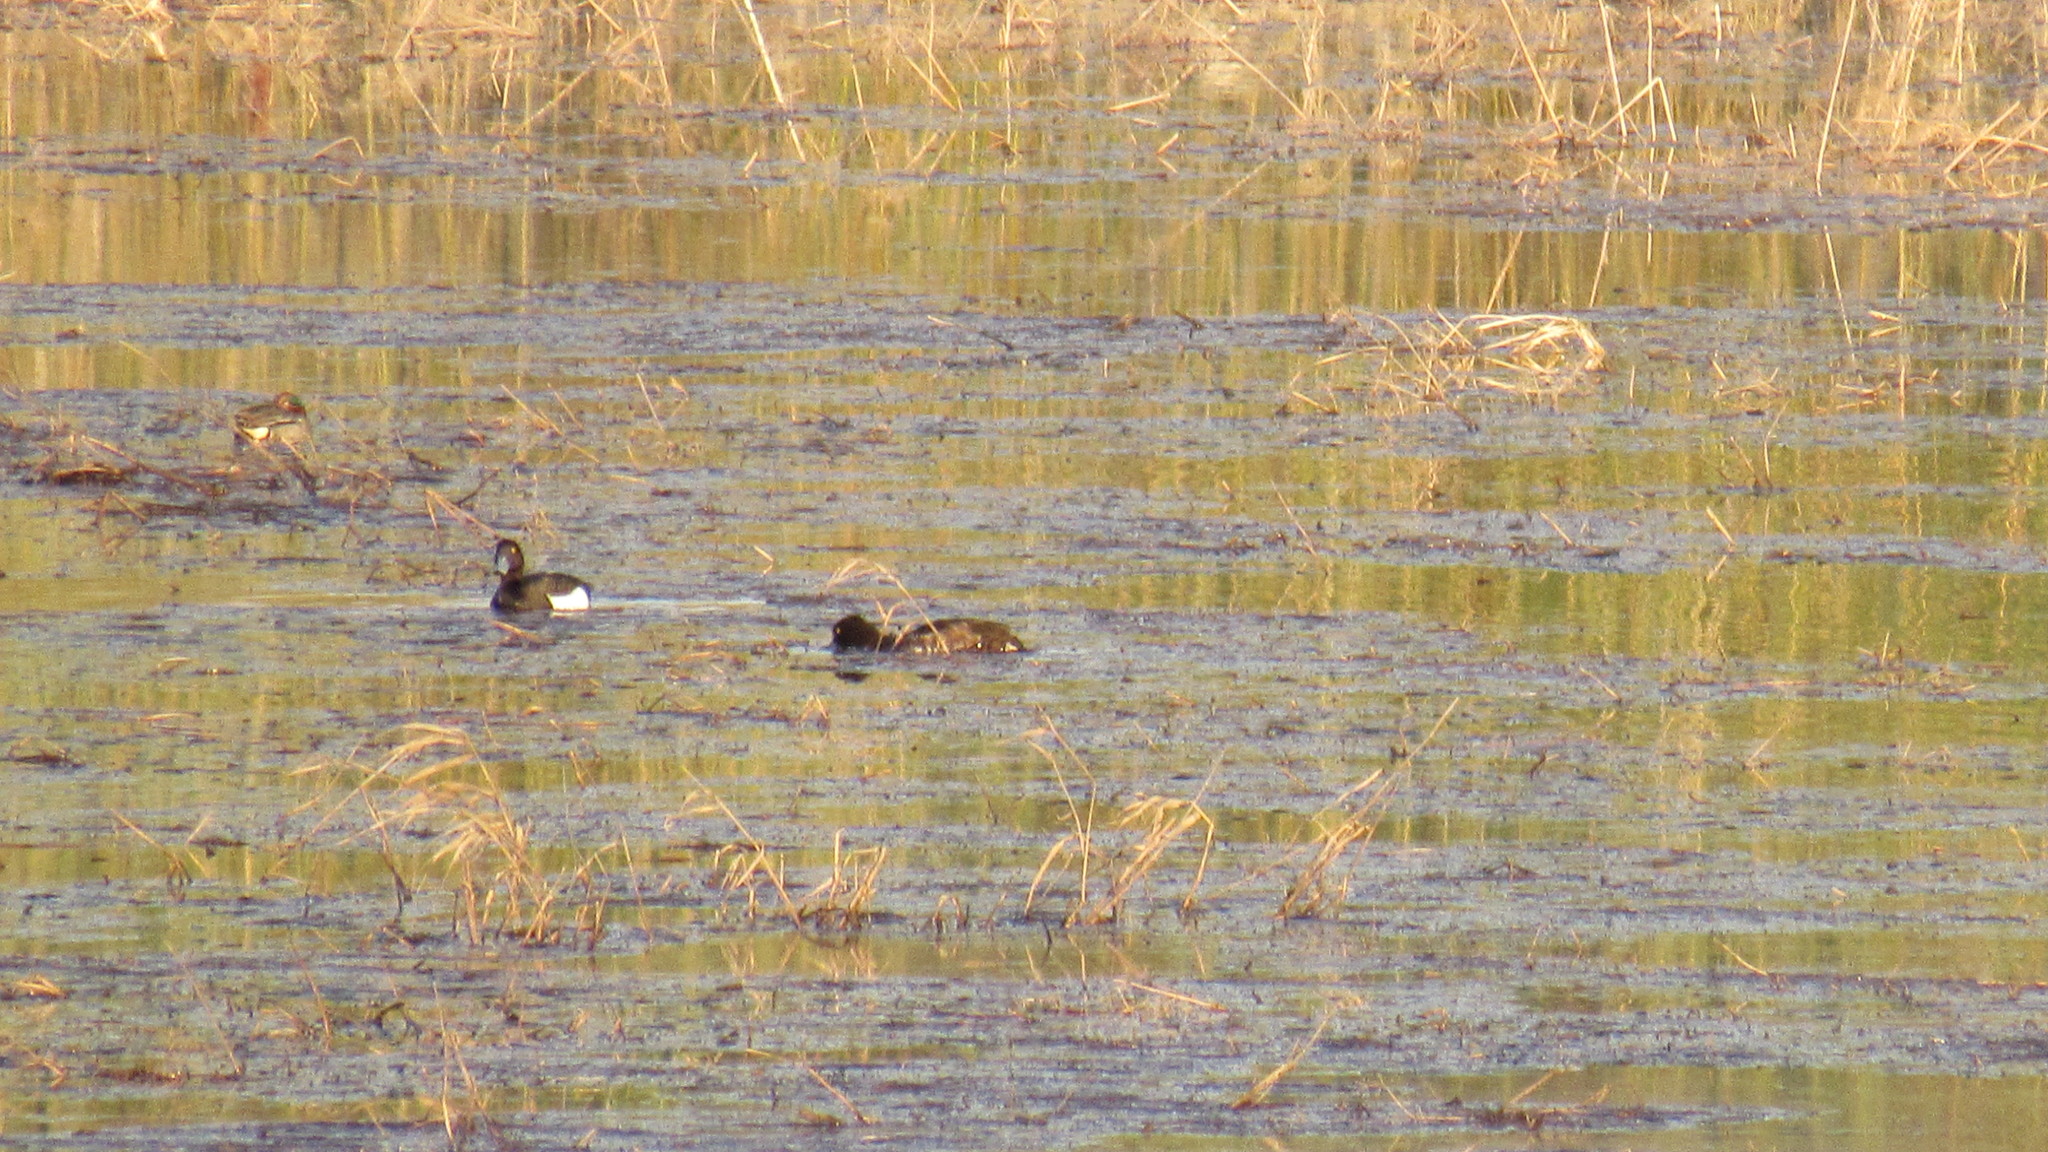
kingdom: Animalia
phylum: Chordata
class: Aves
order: Anseriformes
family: Anatidae
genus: Aythya
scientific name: Aythya fuligula
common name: Tufted duck
